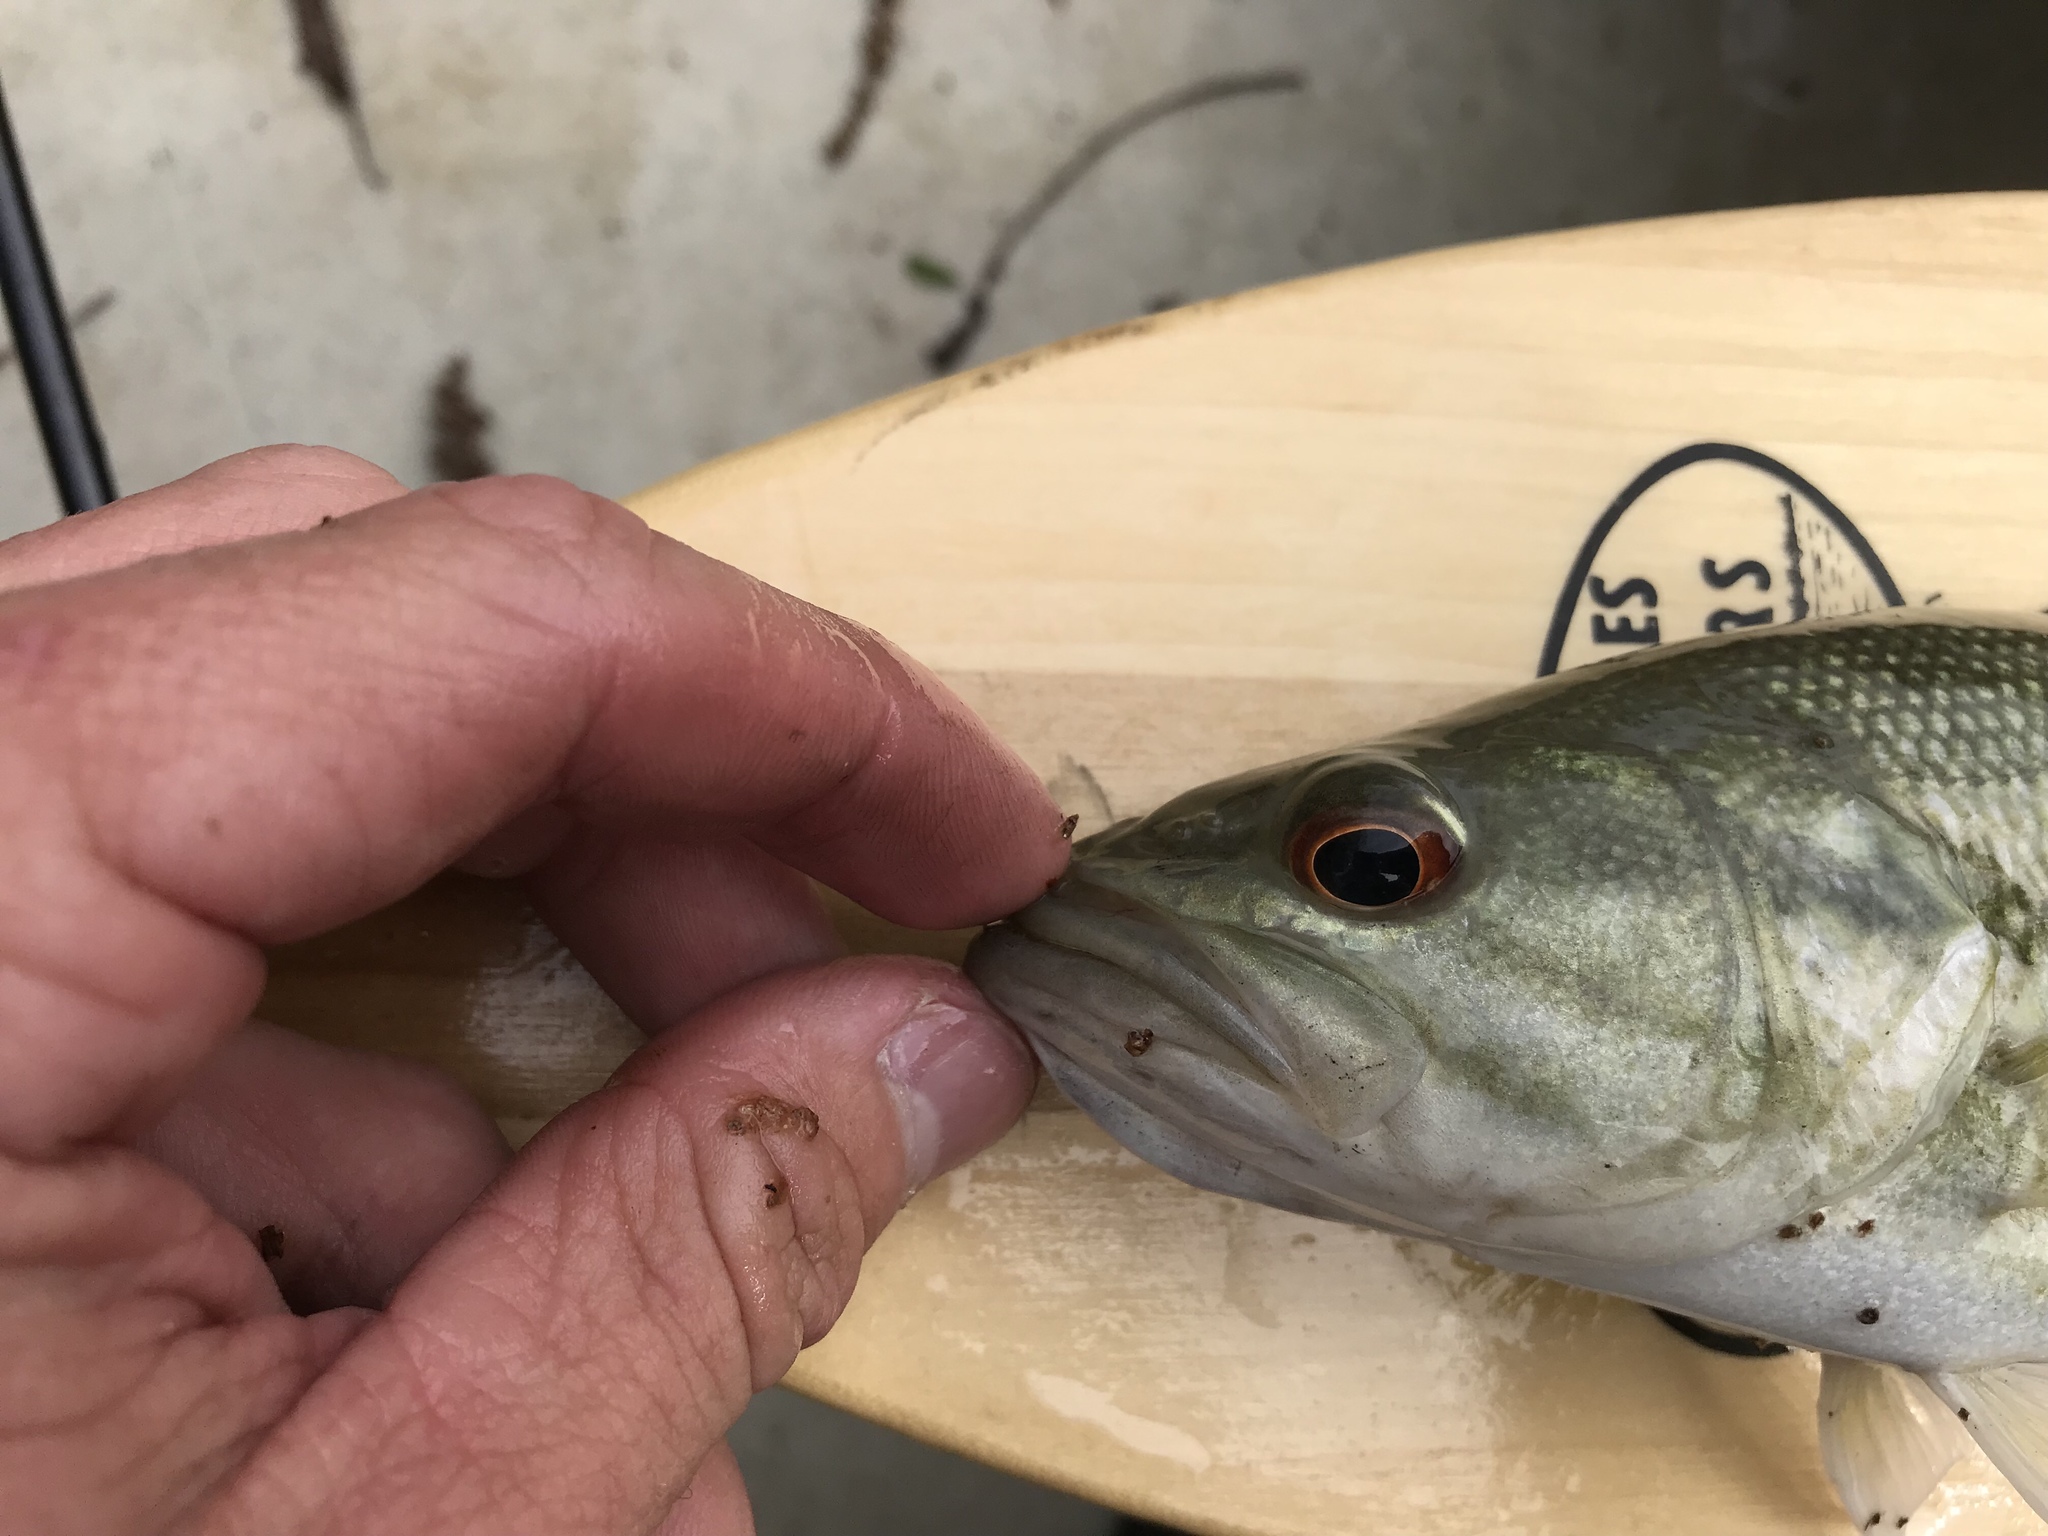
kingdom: Animalia
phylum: Chordata
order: Perciformes
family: Centrarchidae
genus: Micropterus
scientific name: Micropterus treculii
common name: Guadalupe bass
